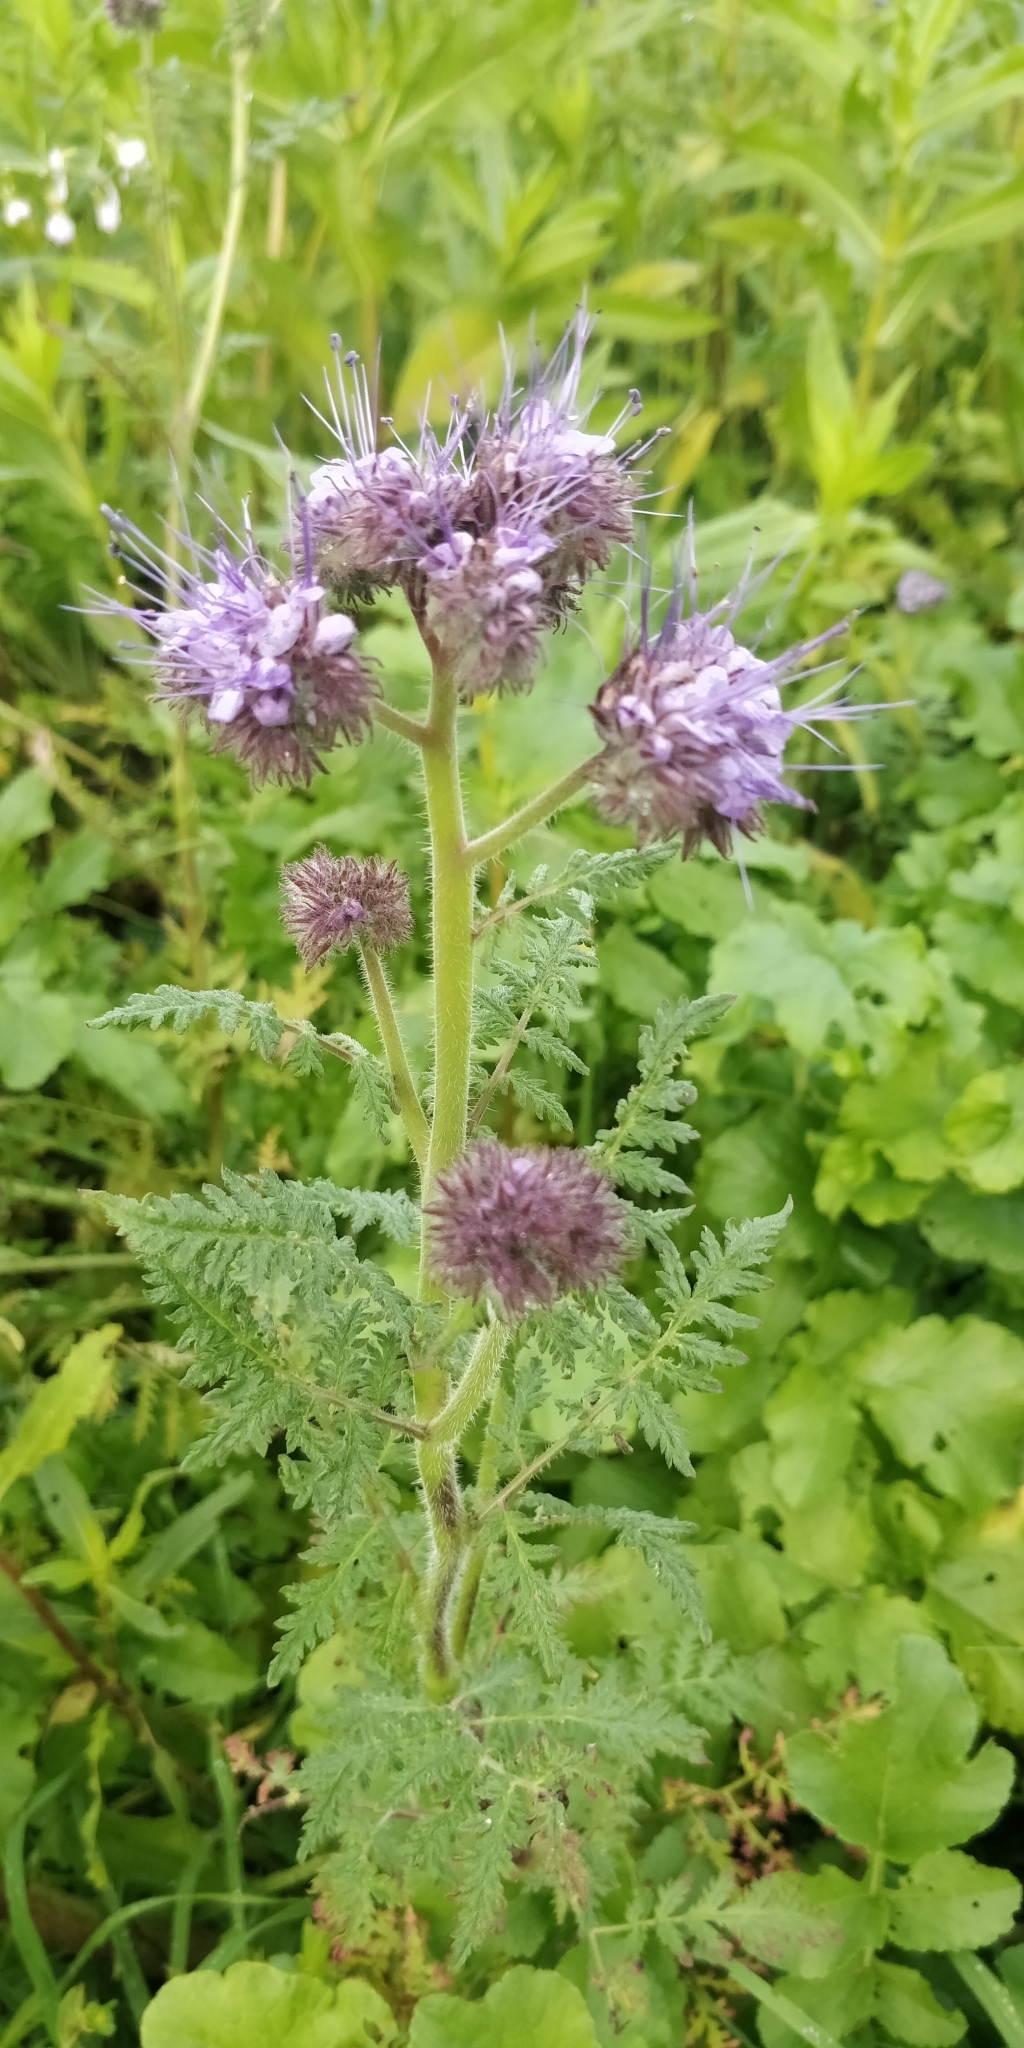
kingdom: Plantae
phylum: Tracheophyta
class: Magnoliopsida
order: Boraginales
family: Hydrophyllaceae
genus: Phacelia
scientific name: Phacelia tanacetifolia
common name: Phacelia
